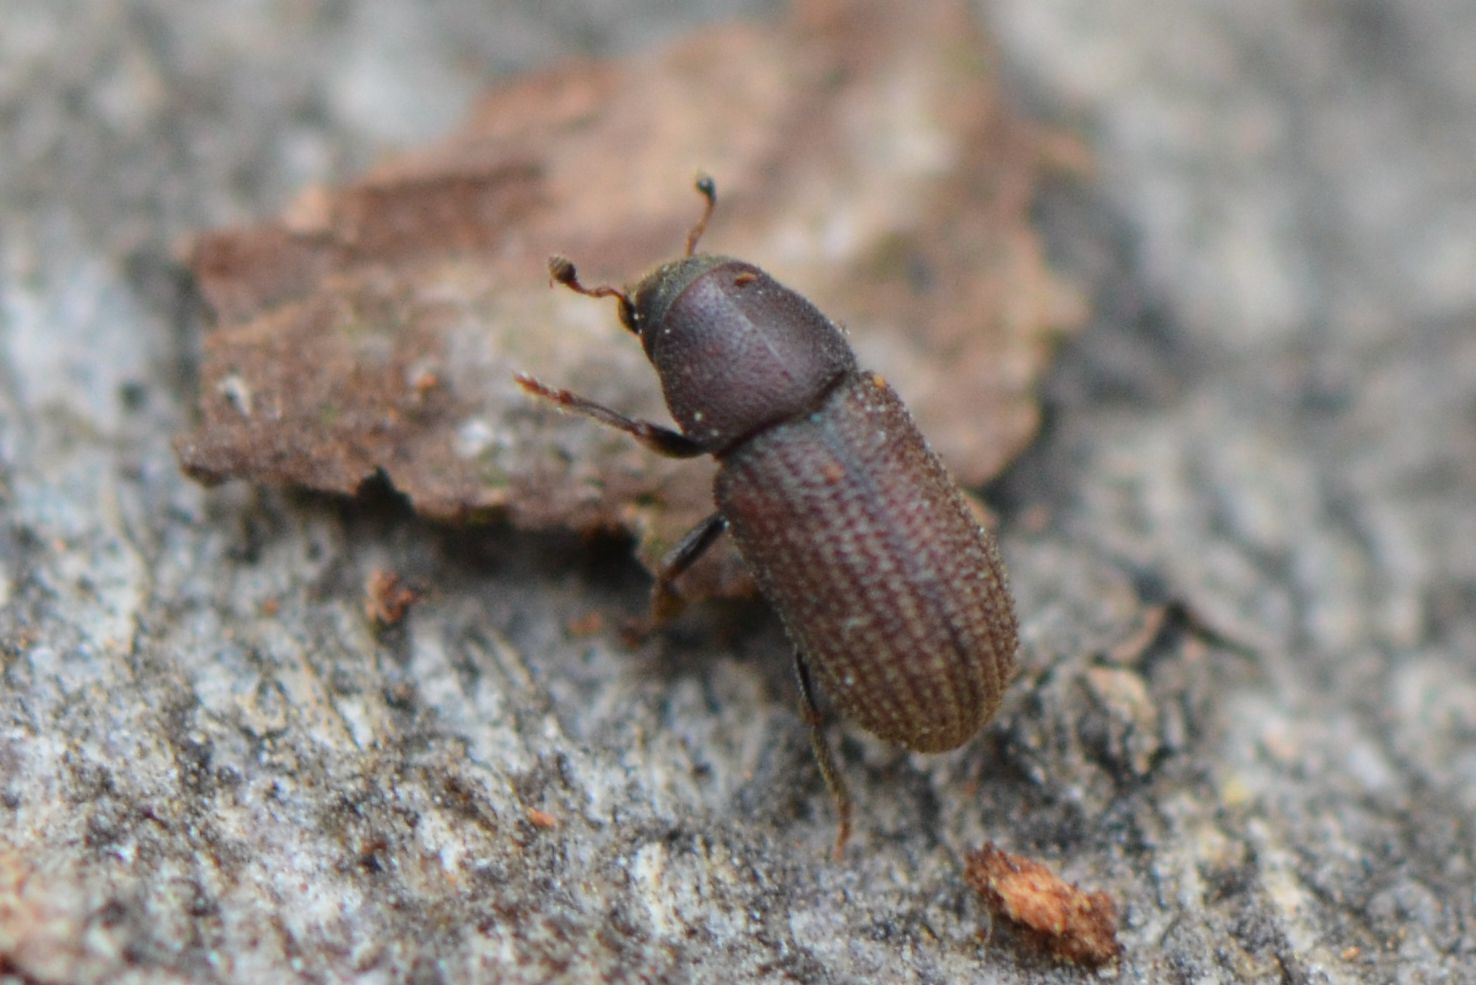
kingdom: Animalia
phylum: Arthropoda
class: Insecta
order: Coleoptera
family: Curculionidae
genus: Hylurgops
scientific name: Hylurgops palliatus
